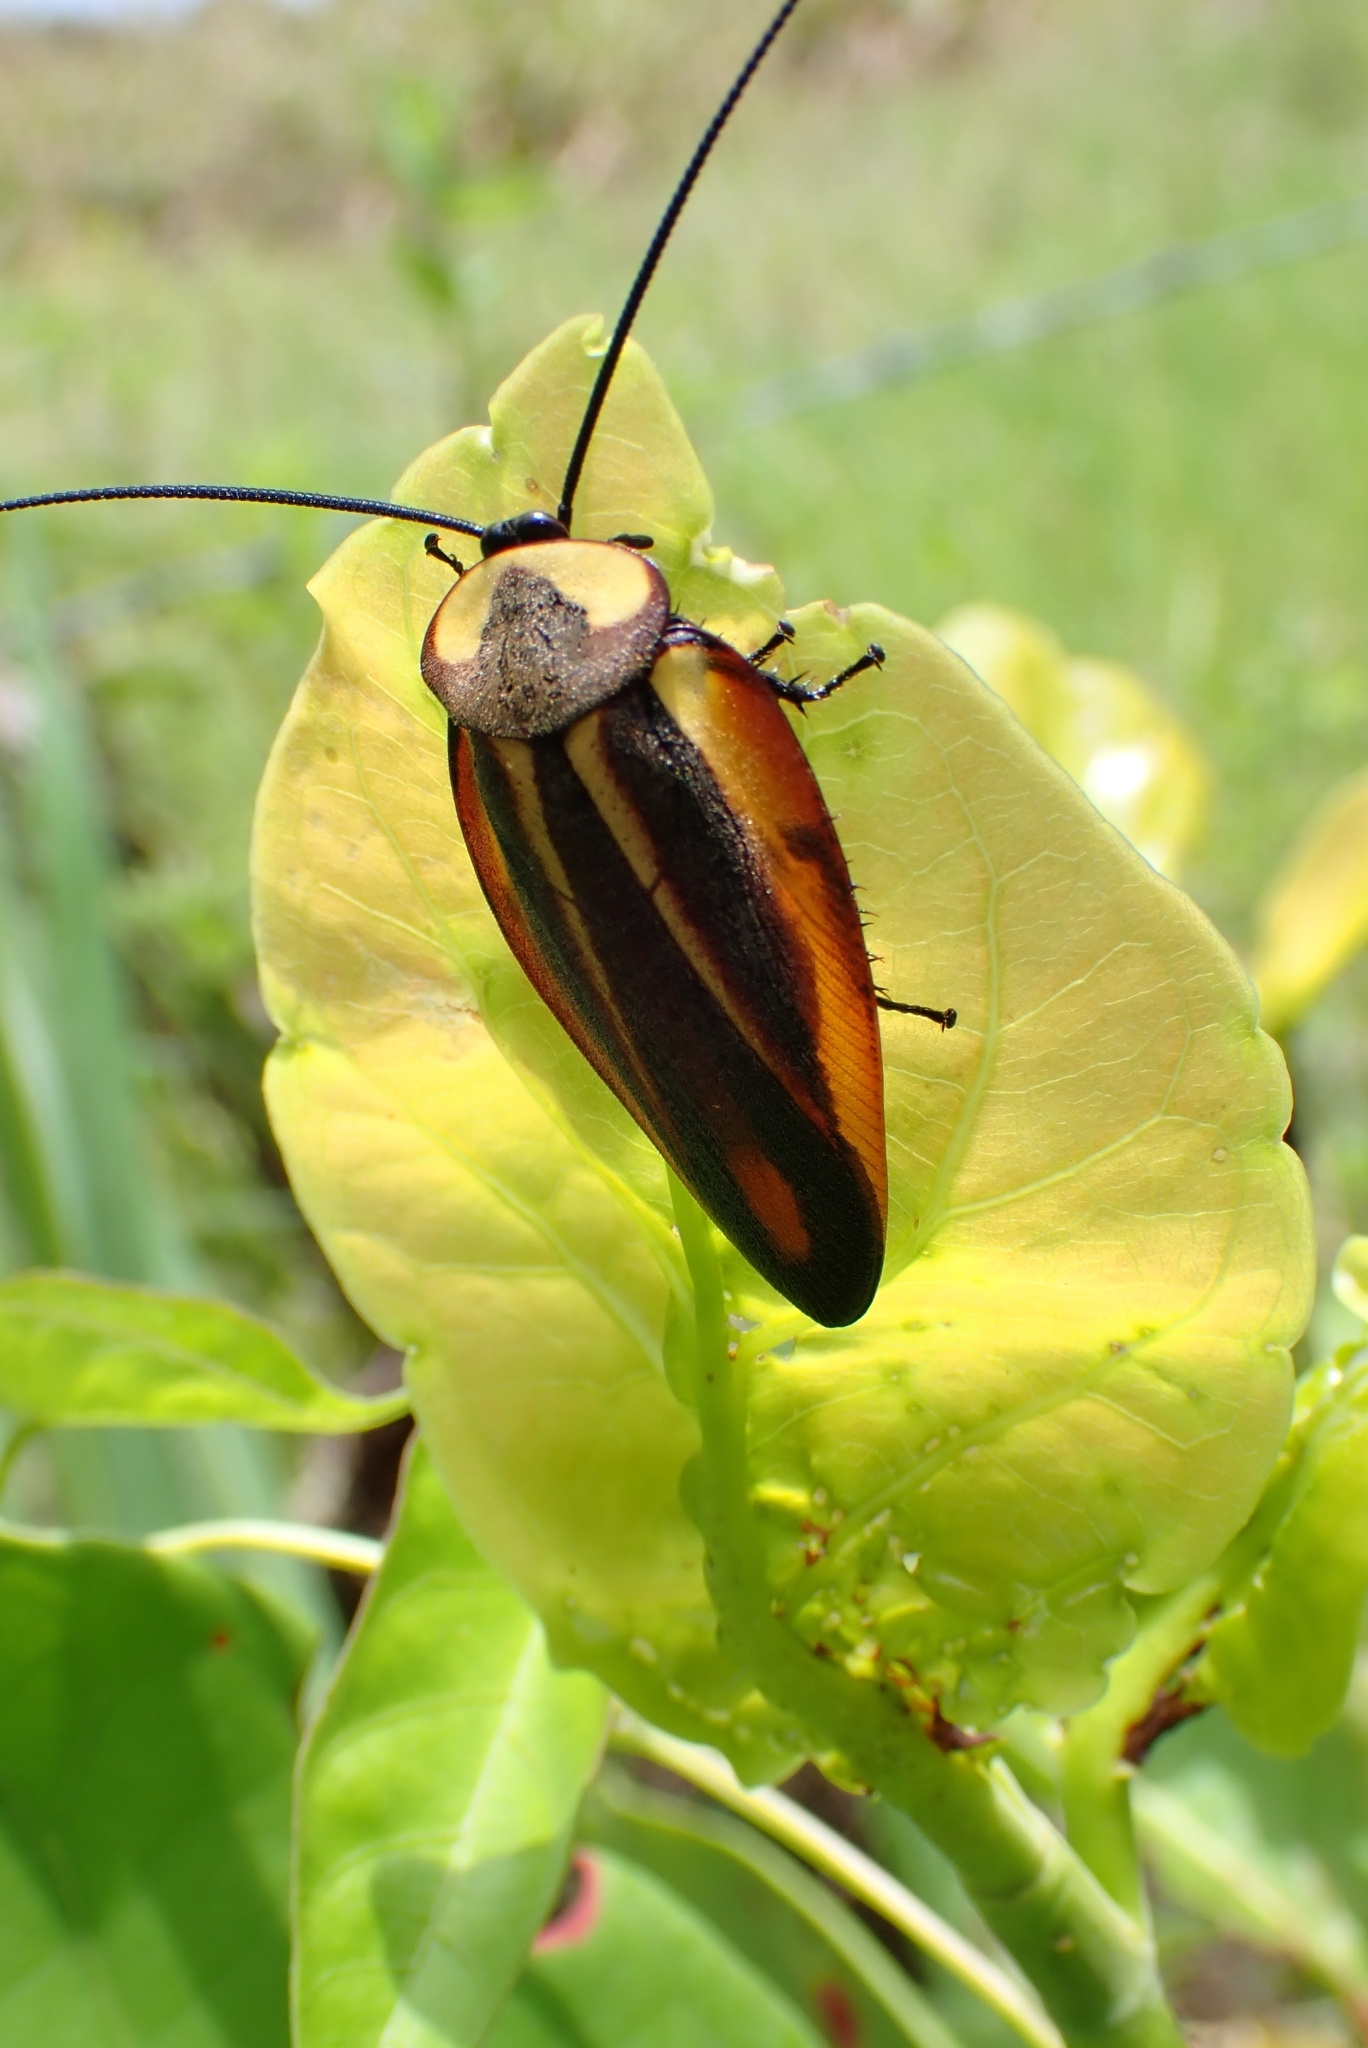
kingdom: Animalia
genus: Rochaina
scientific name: Rochaina
